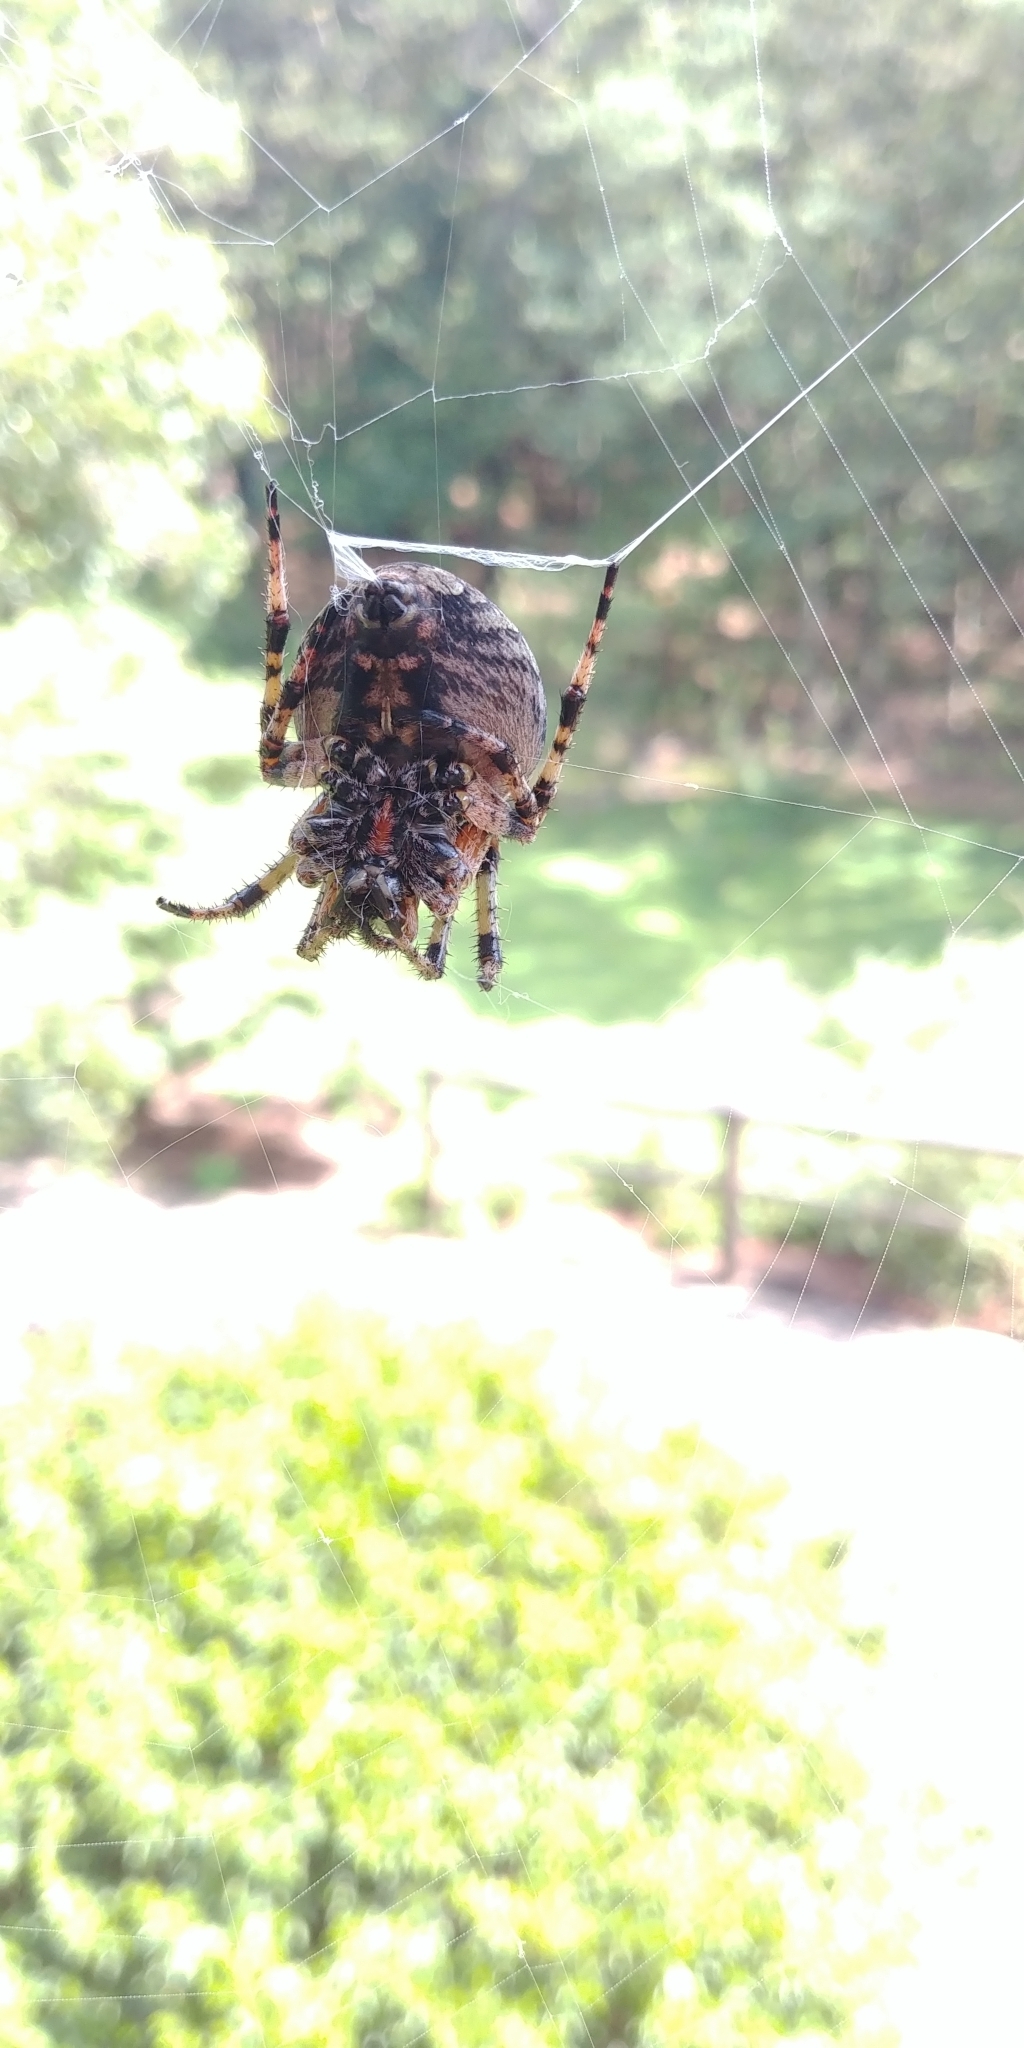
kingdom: Animalia
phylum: Arthropoda
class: Arachnida
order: Araneae
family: Araneidae
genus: Araneus
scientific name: Araneus bicentenarius
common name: Giant lichen orbweaver
